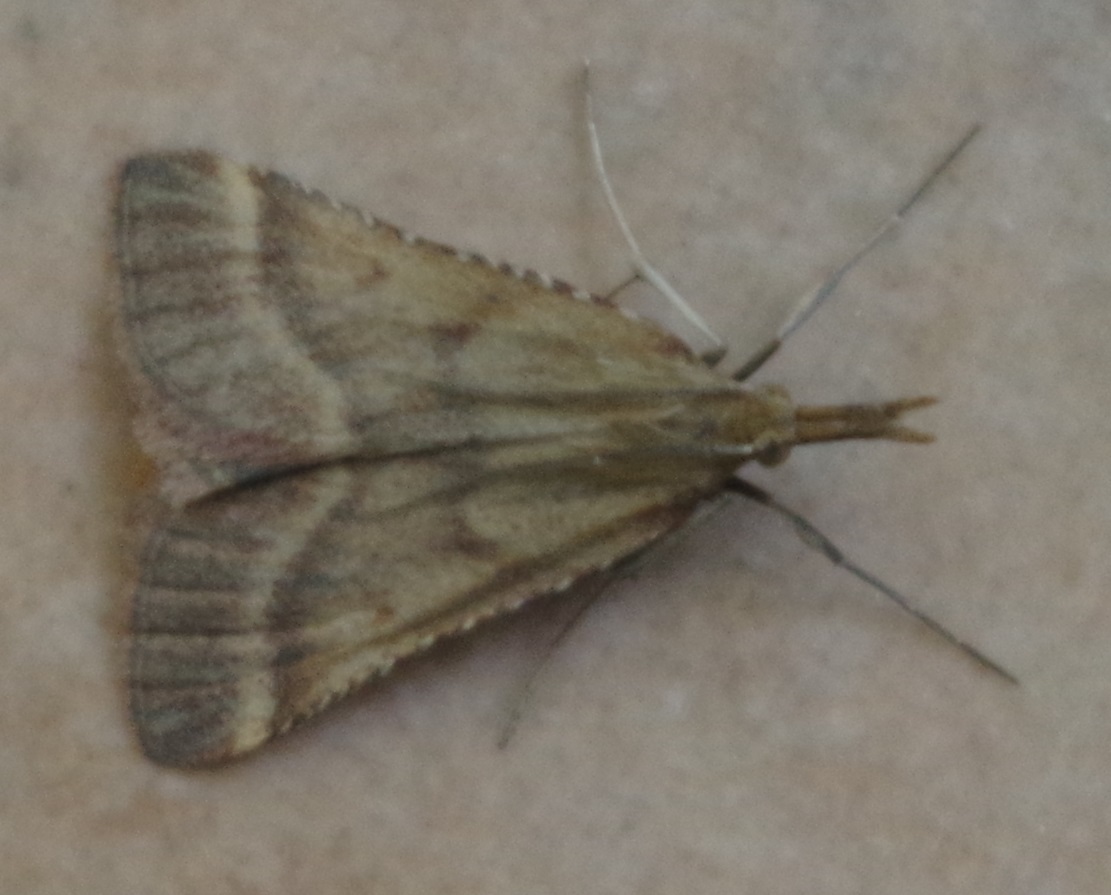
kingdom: Animalia
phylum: Arthropoda
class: Insecta
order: Lepidoptera
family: Pyralidae
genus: Synaphe
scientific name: Synaphe punctalis
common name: Long-legged tabby
